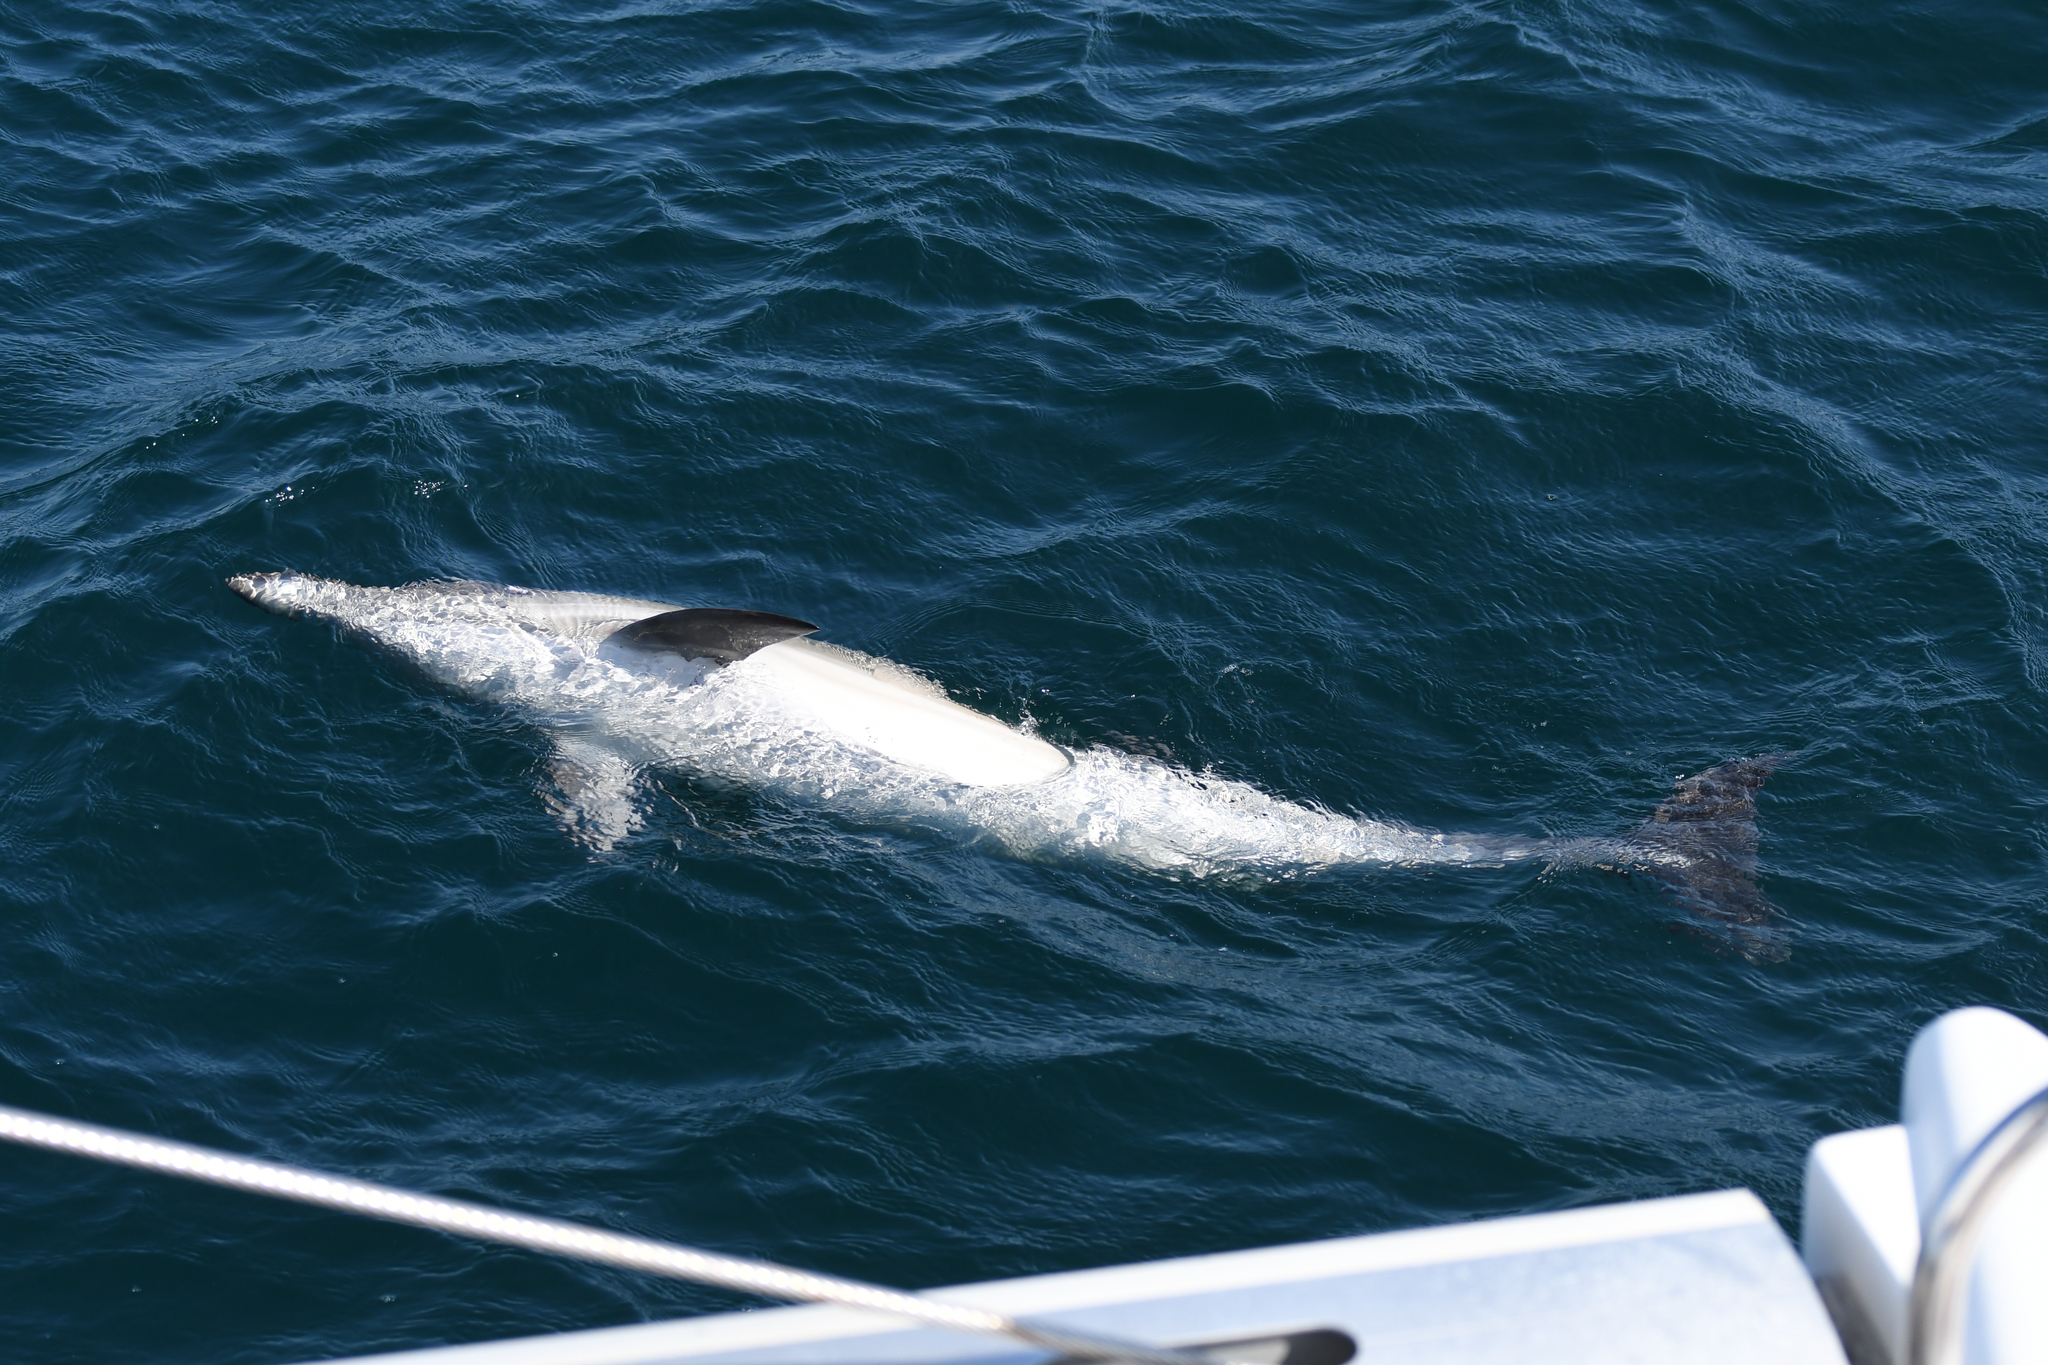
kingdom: Animalia
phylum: Chordata
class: Mammalia
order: Cetacea
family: Delphinidae
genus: Delphinus
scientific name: Delphinus delphis
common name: Common dolphin
